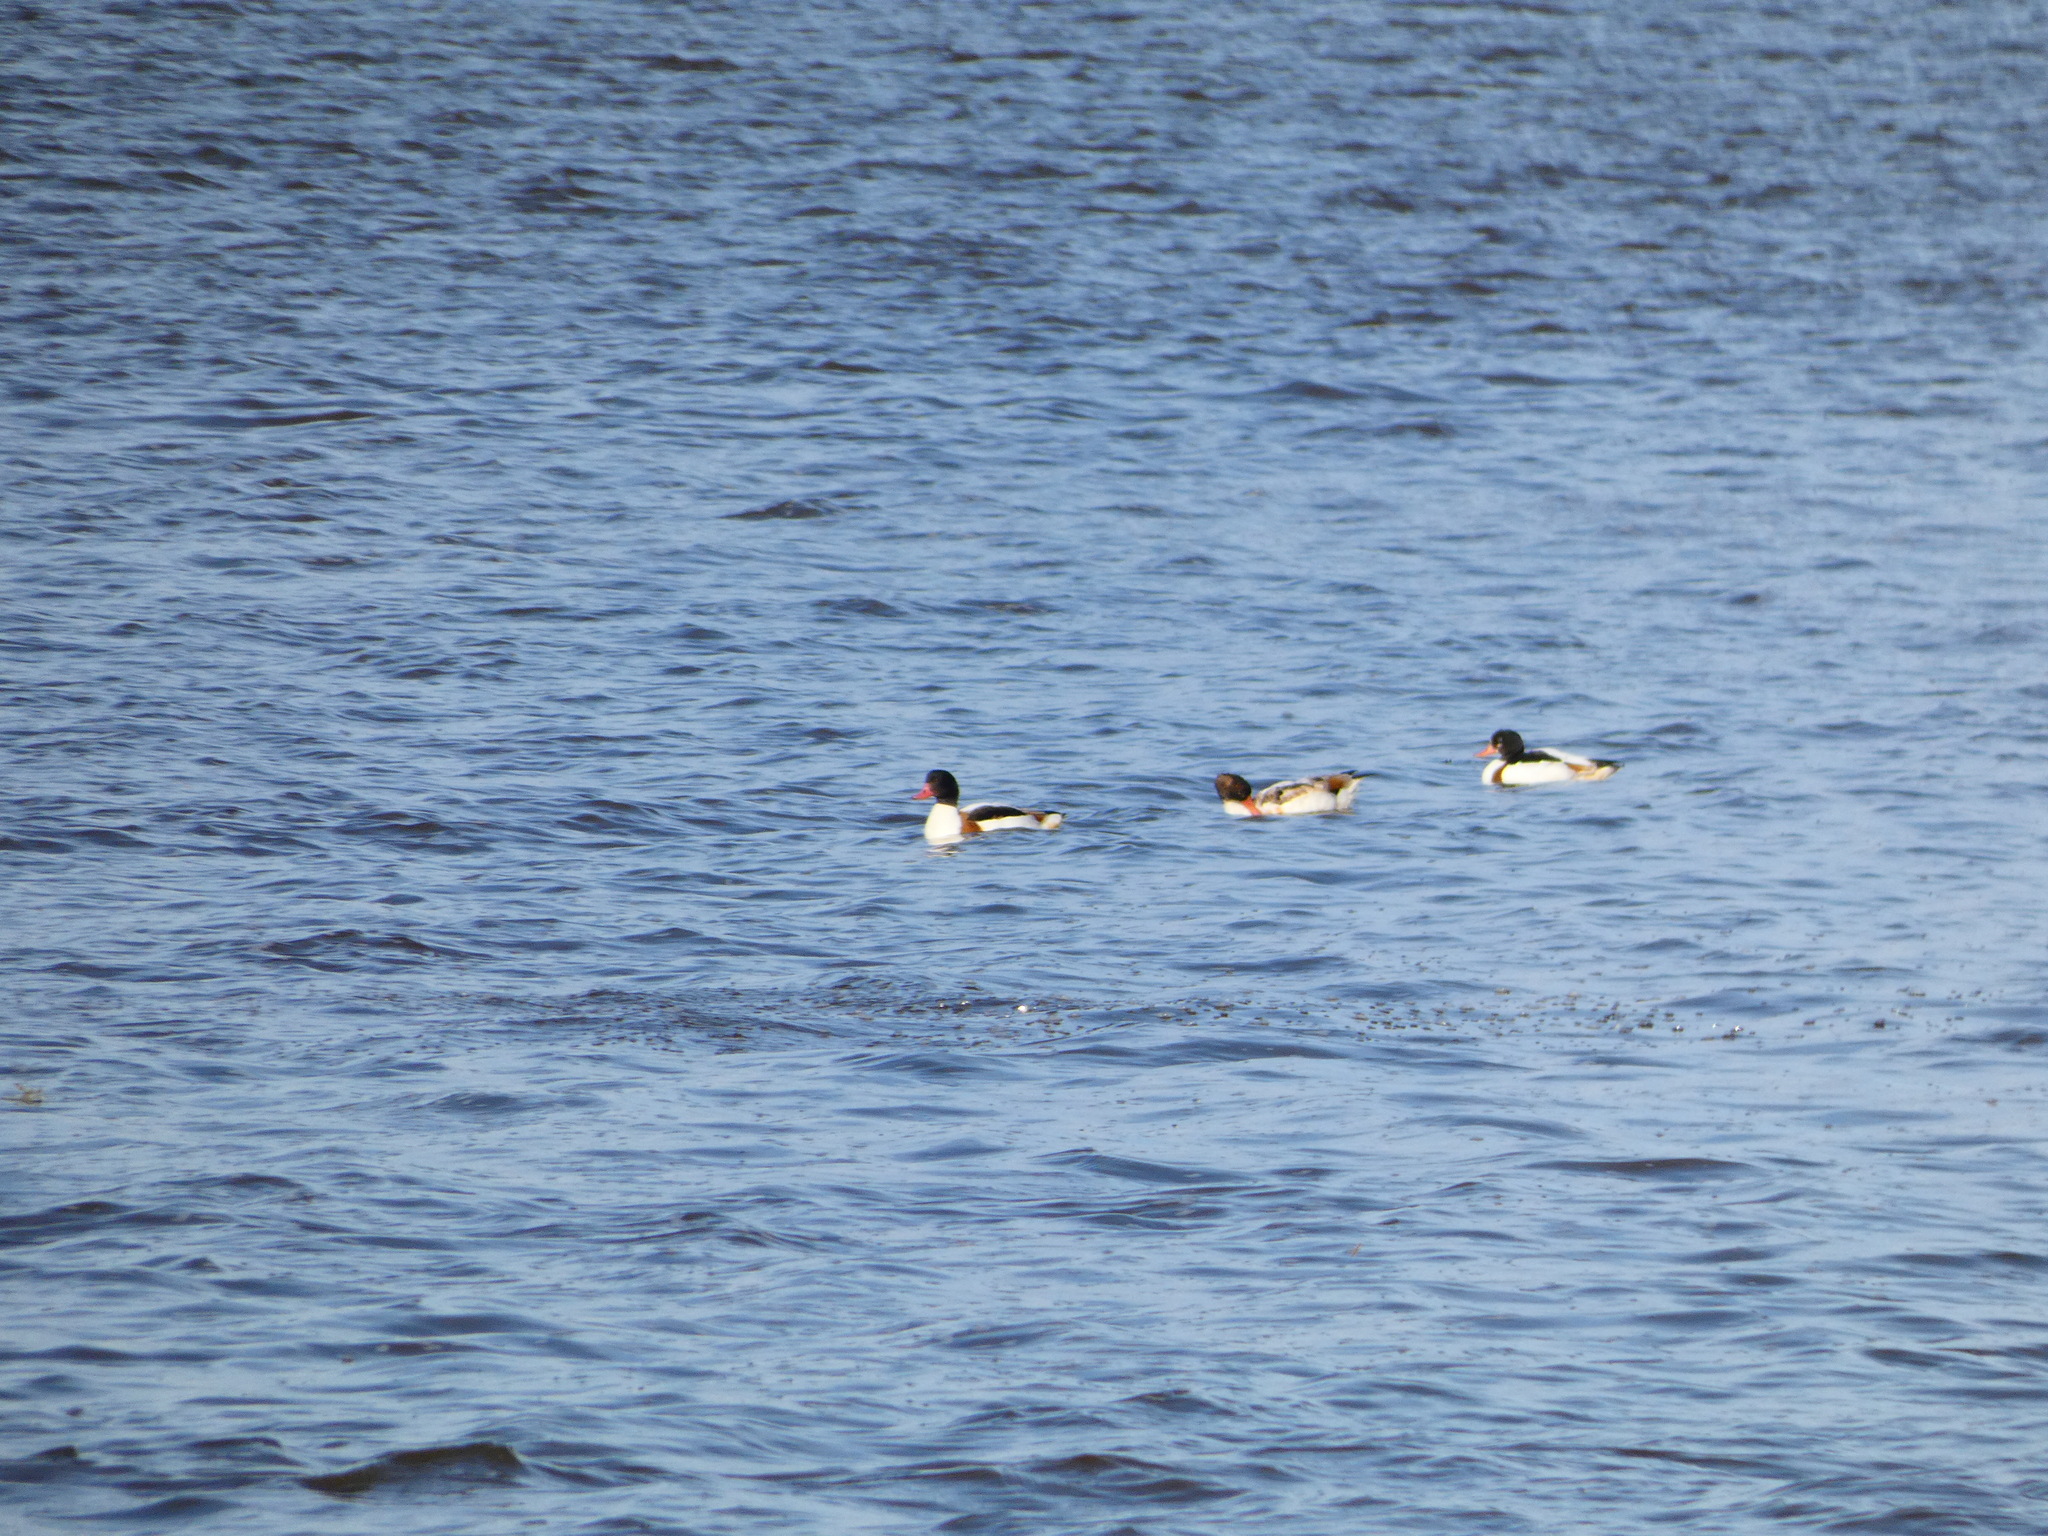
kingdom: Animalia
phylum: Chordata
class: Aves
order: Anseriformes
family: Anatidae
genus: Tadorna
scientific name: Tadorna tadorna
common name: Common shelduck
